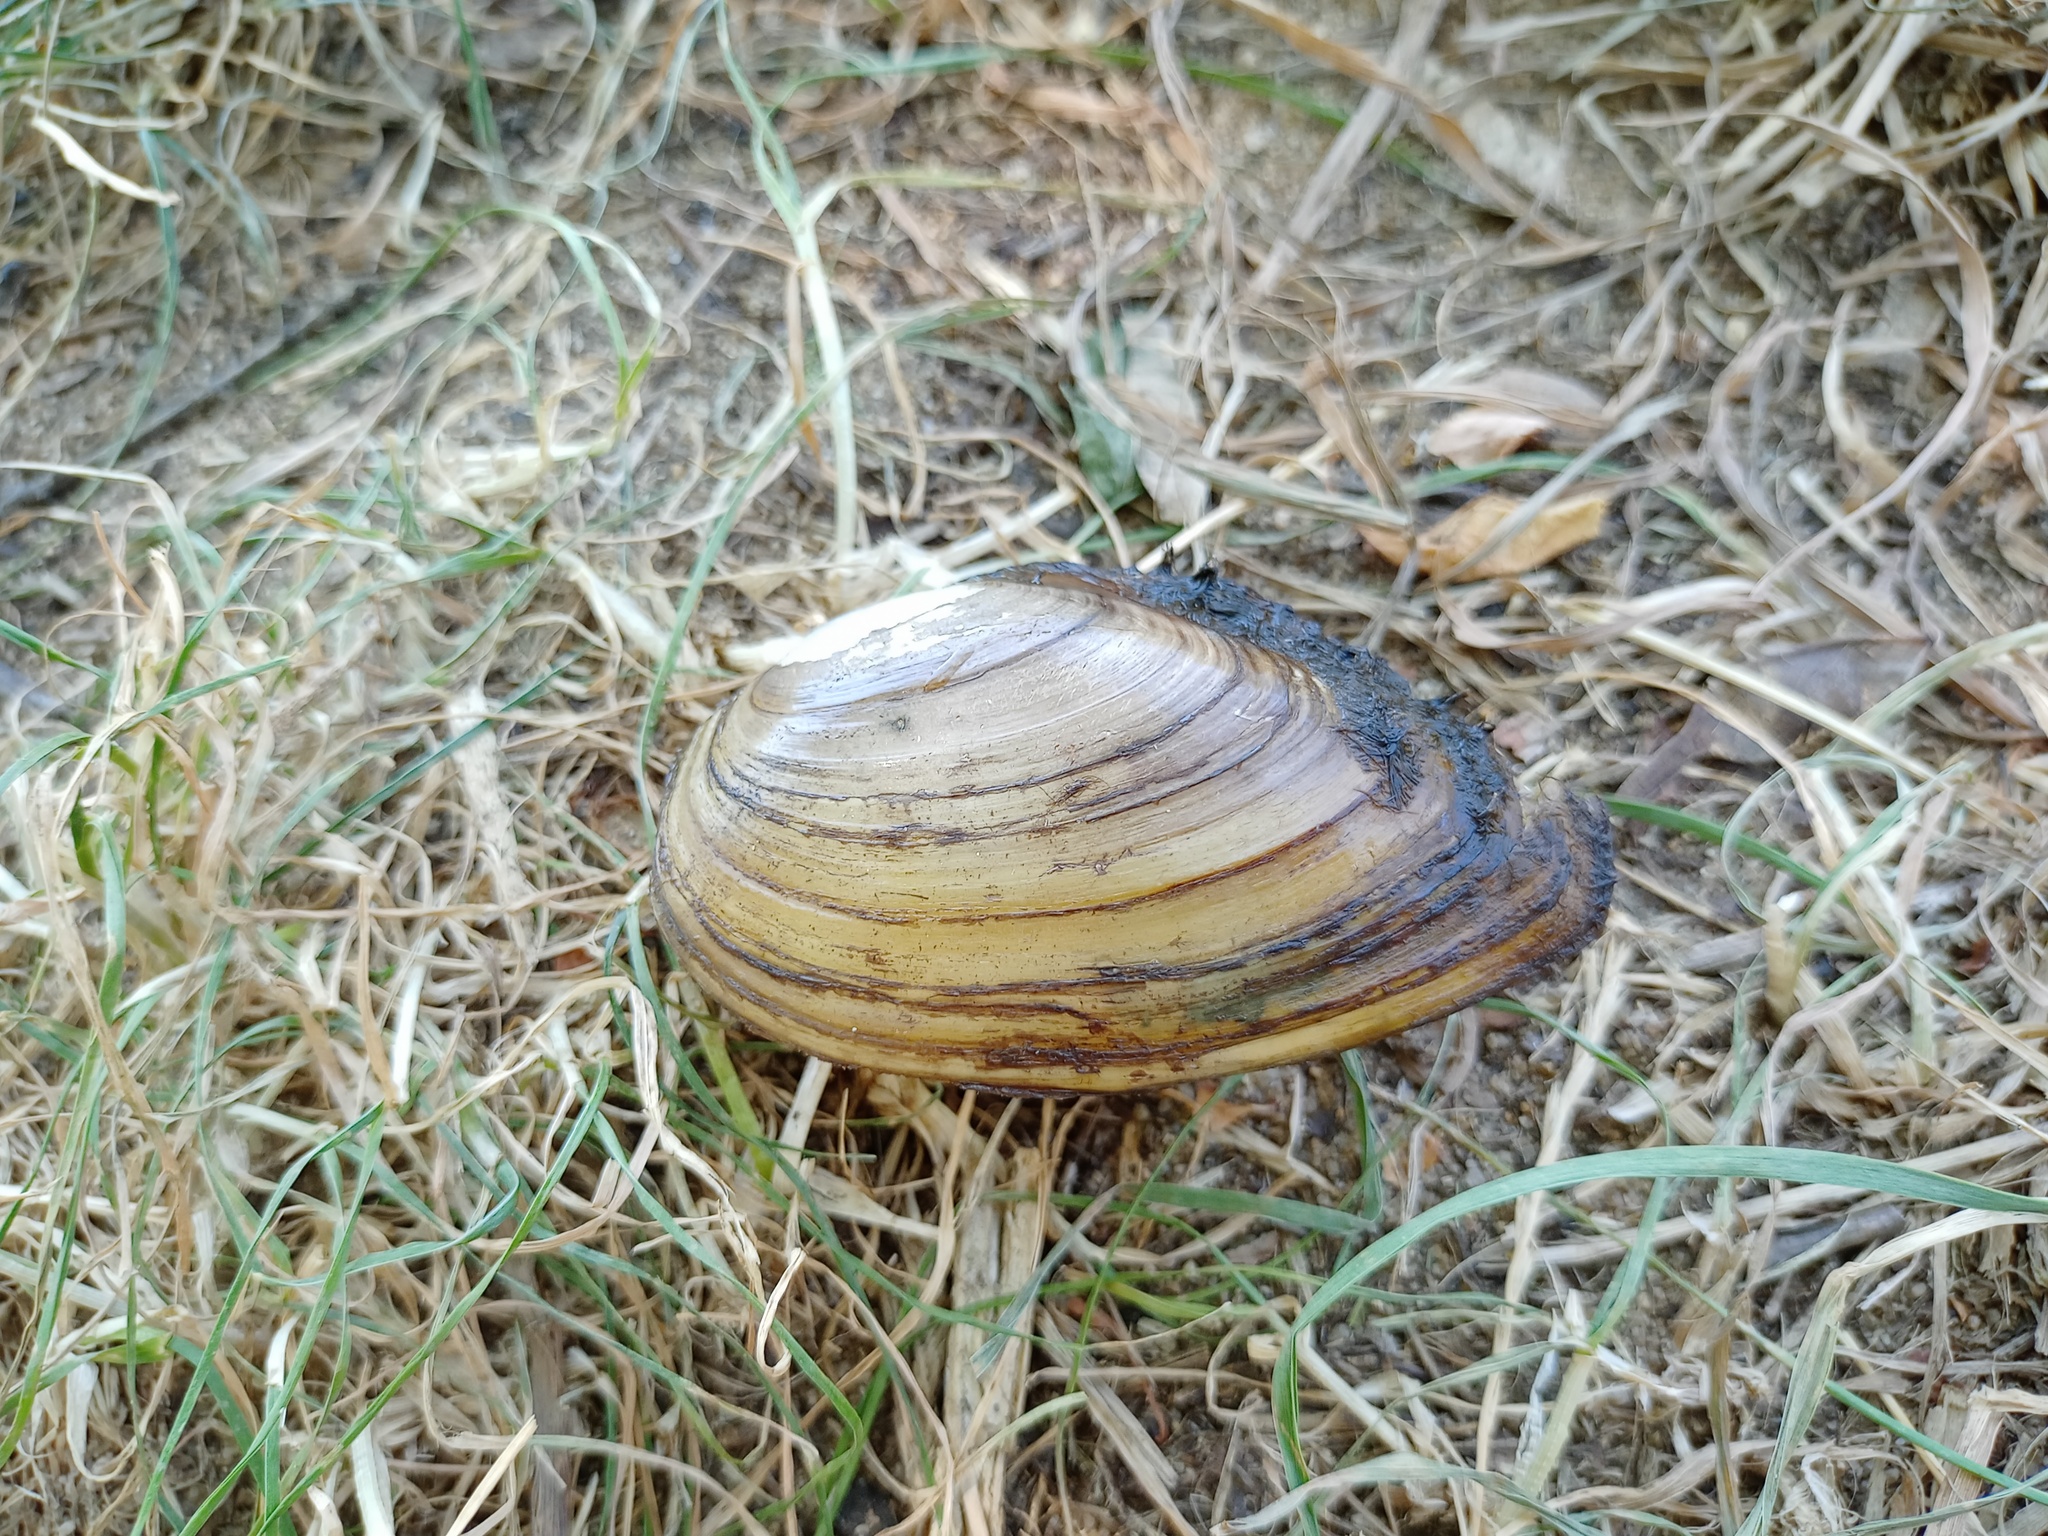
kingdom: Animalia
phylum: Mollusca
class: Bivalvia
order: Unionida
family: Unionidae
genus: Anodonta
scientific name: Anodonta anatina
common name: Duck mussel
